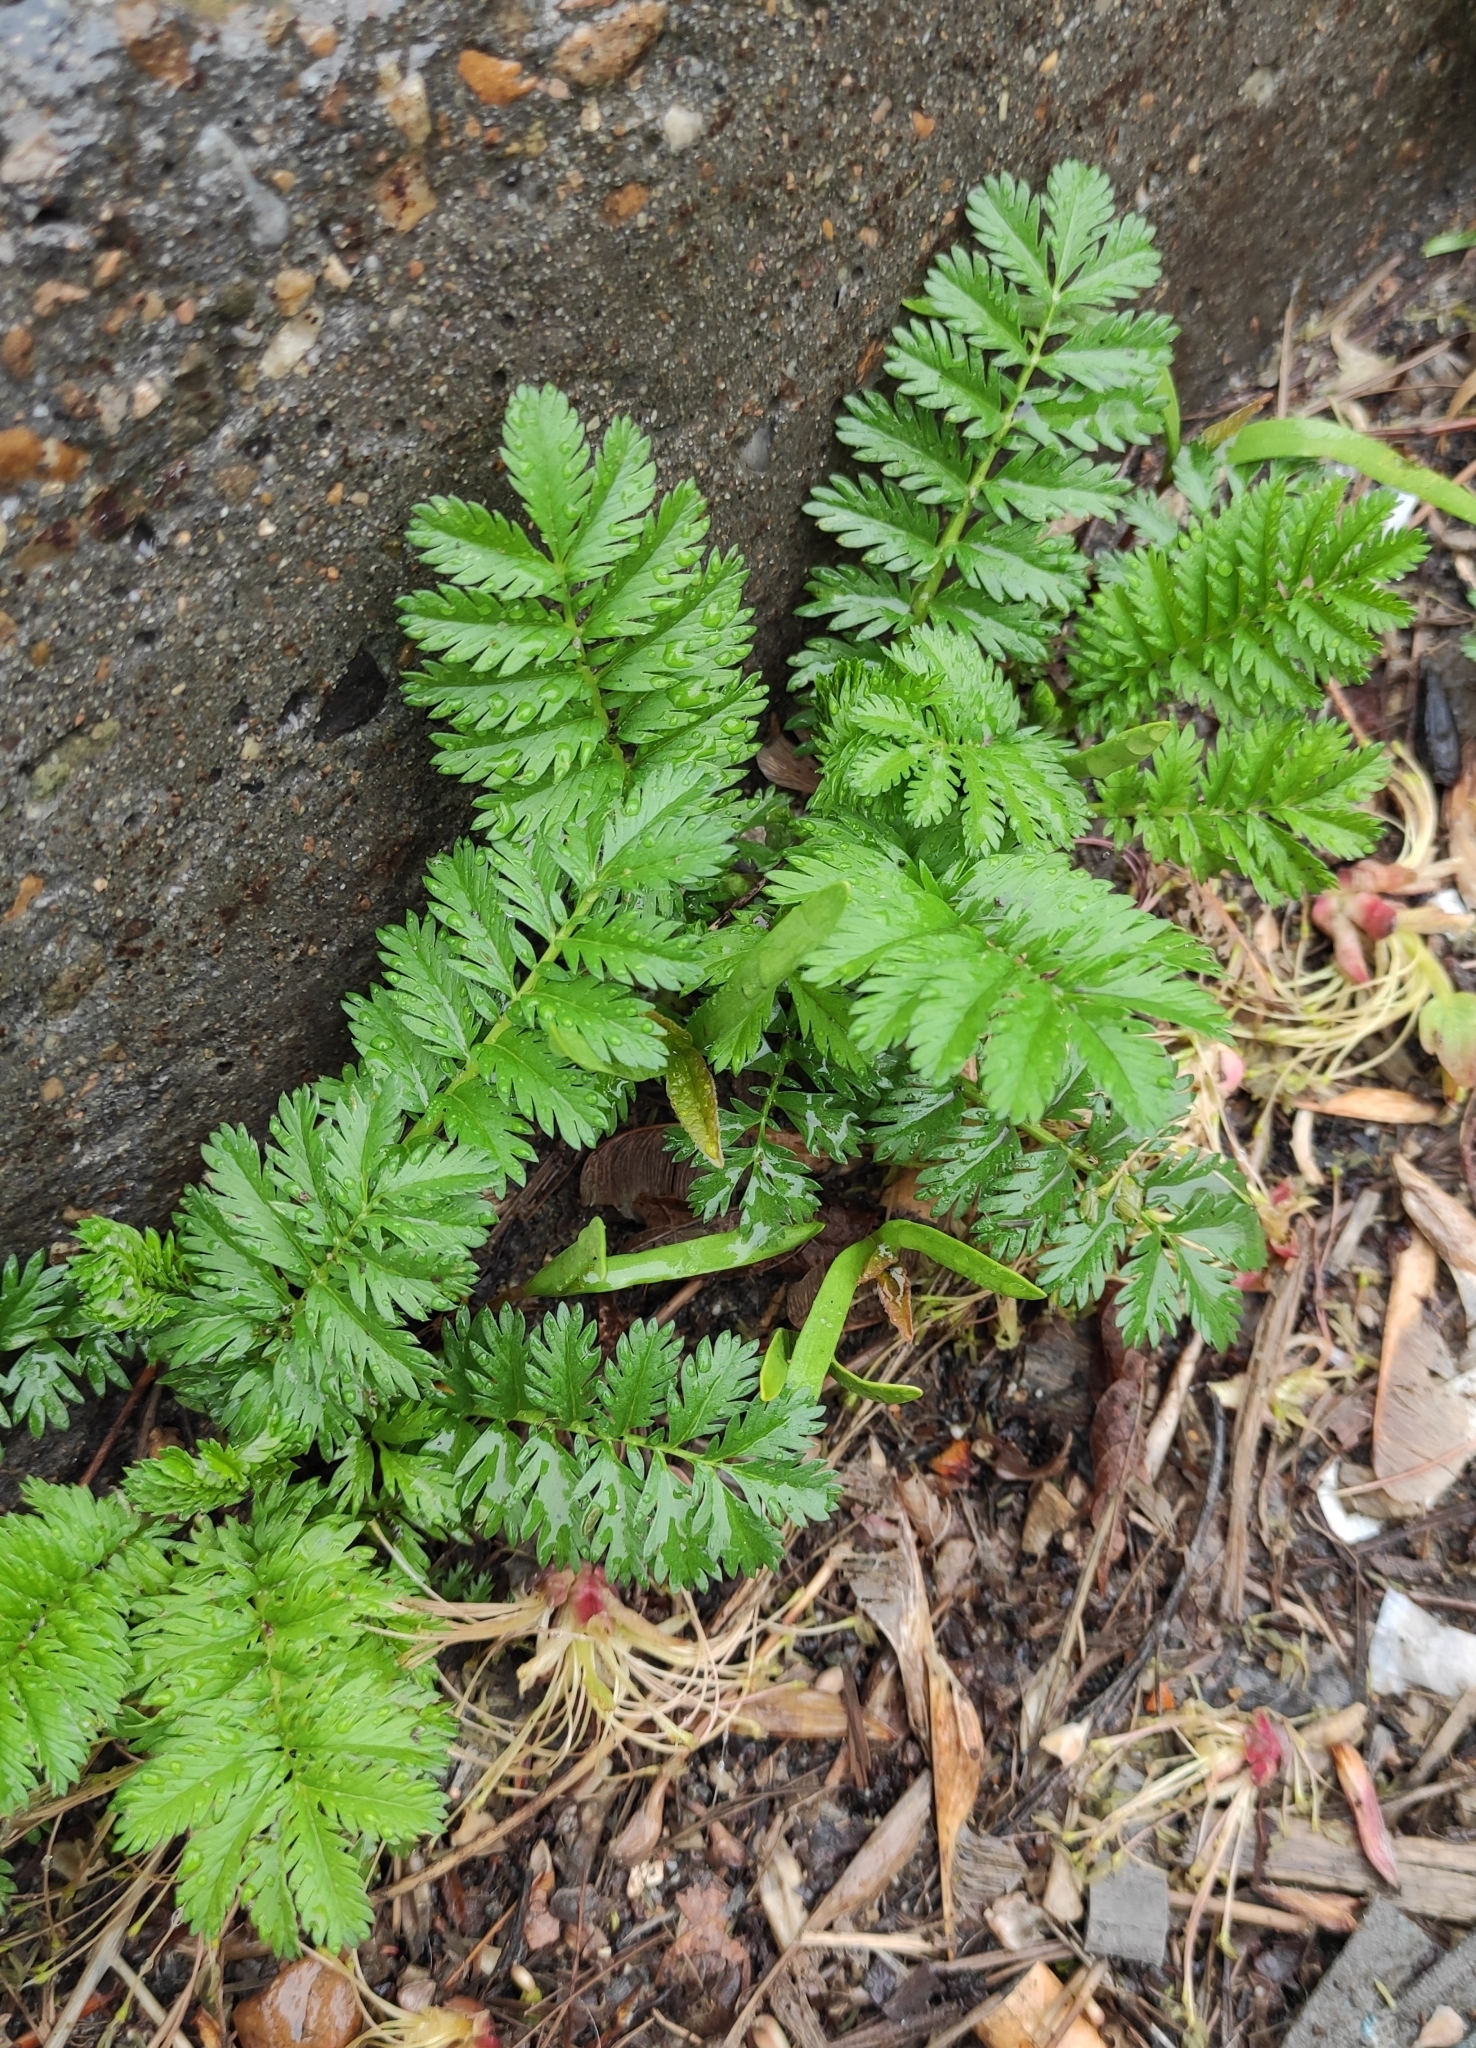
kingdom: Plantae
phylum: Tracheophyta
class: Magnoliopsida
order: Rosales
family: Rosaceae
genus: Argentina
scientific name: Argentina anserina
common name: Common silverweed
